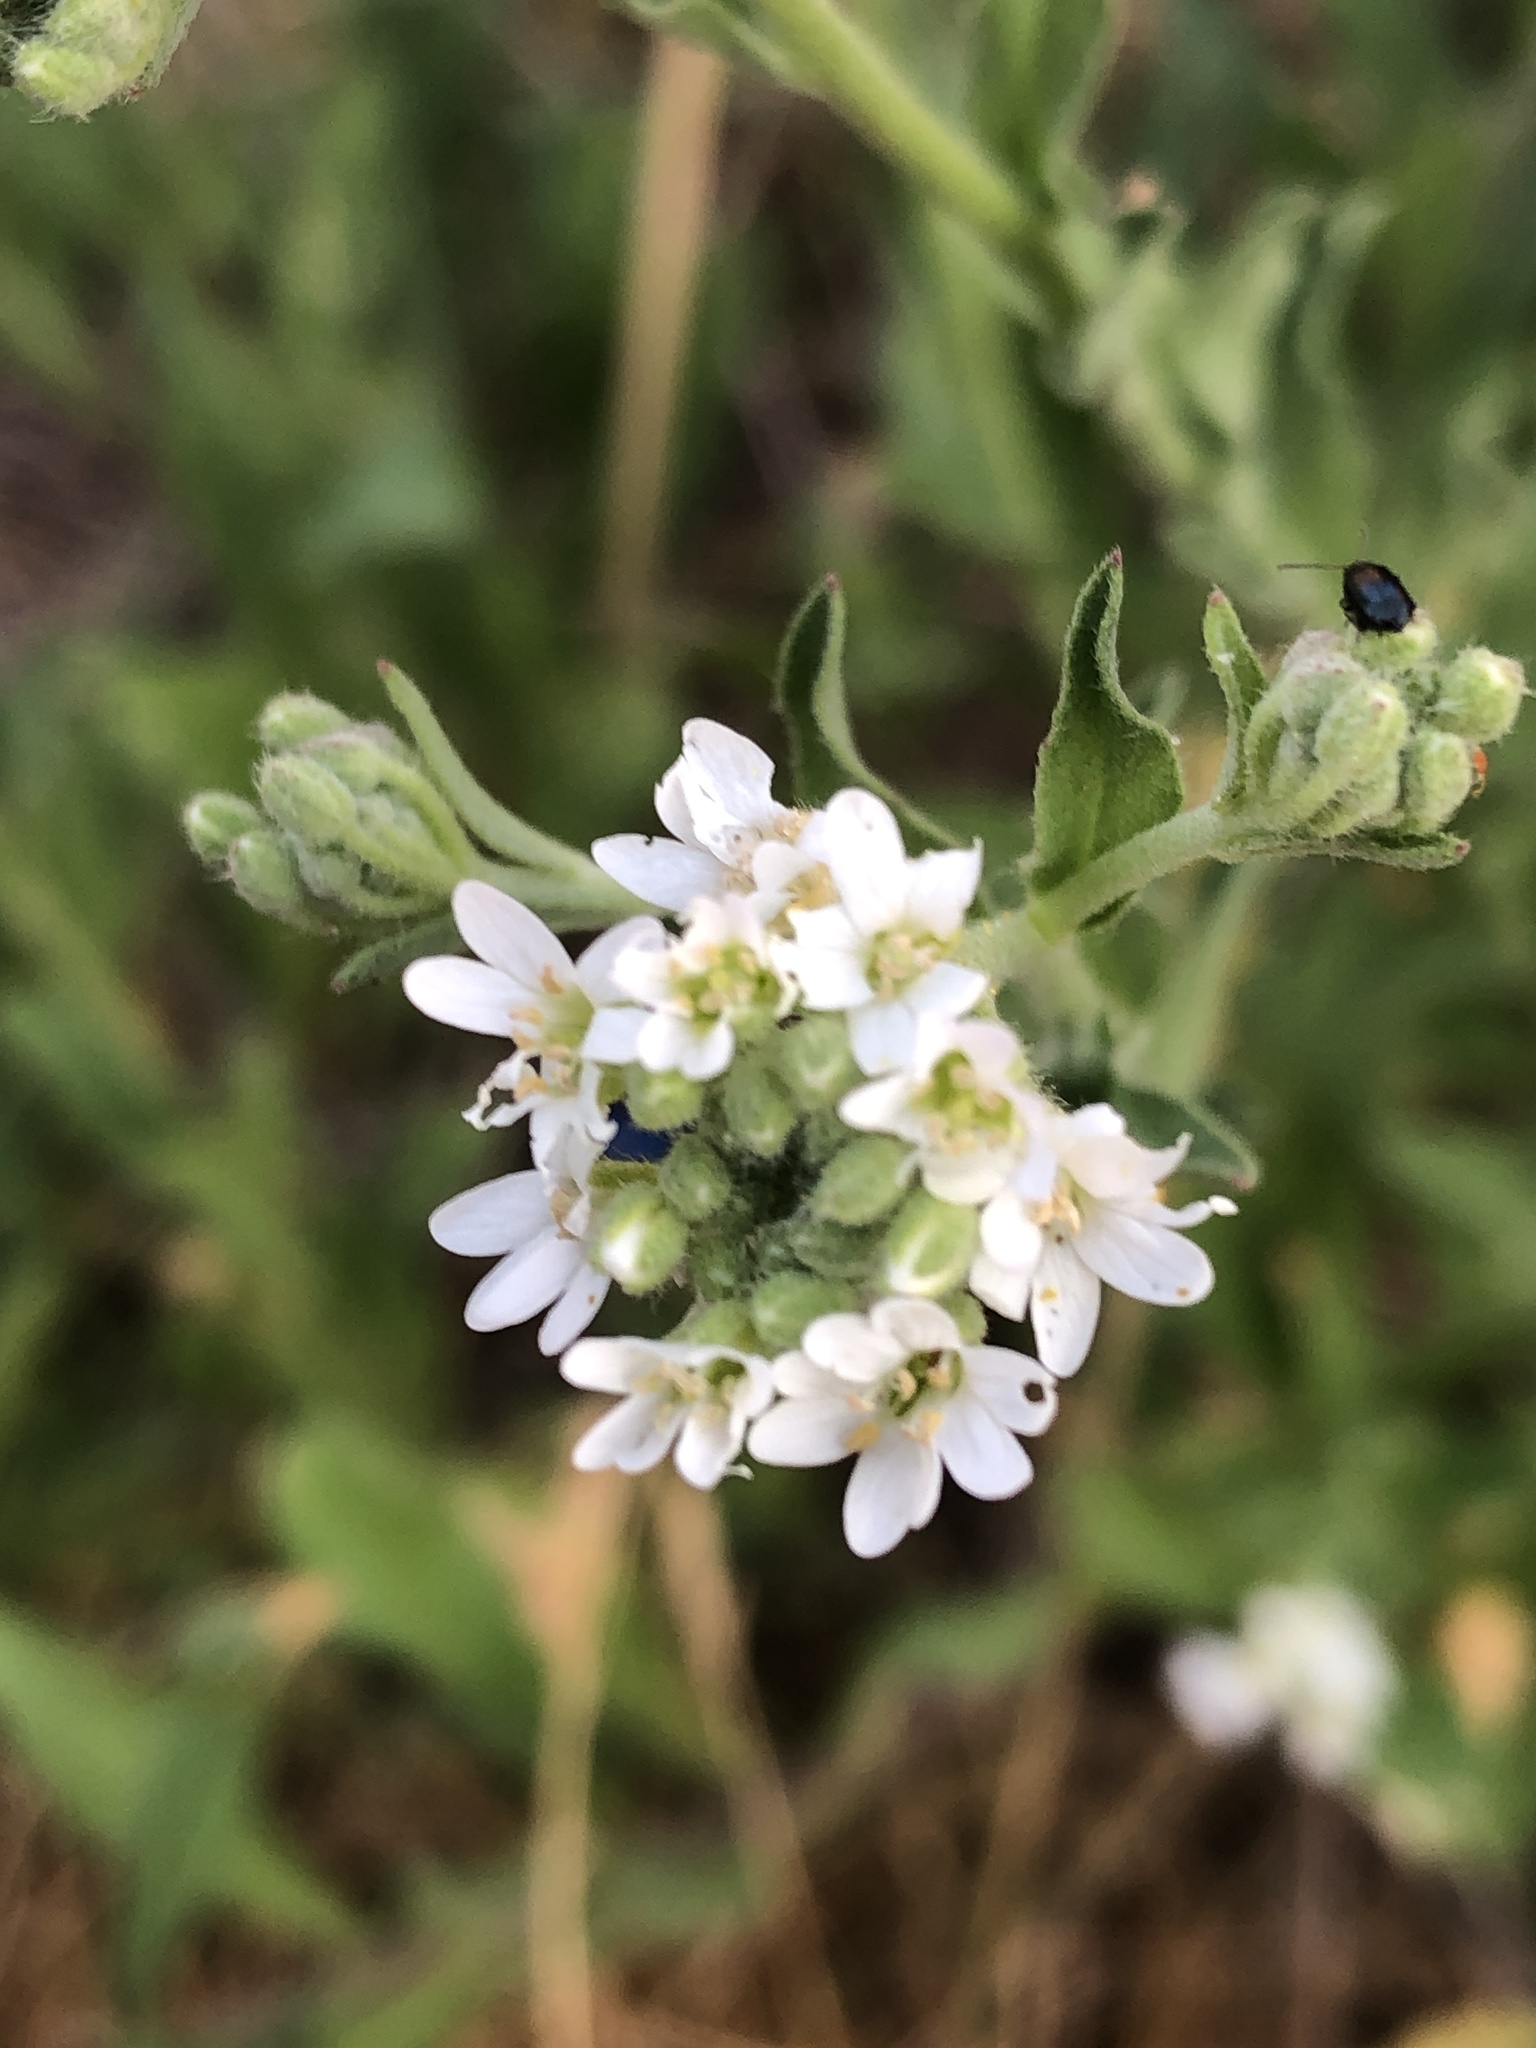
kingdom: Plantae
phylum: Tracheophyta
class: Magnoliopsida
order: Brassicales
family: Brassicaceae
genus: Berteroa
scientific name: Berteroa incana
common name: Hoary alison
